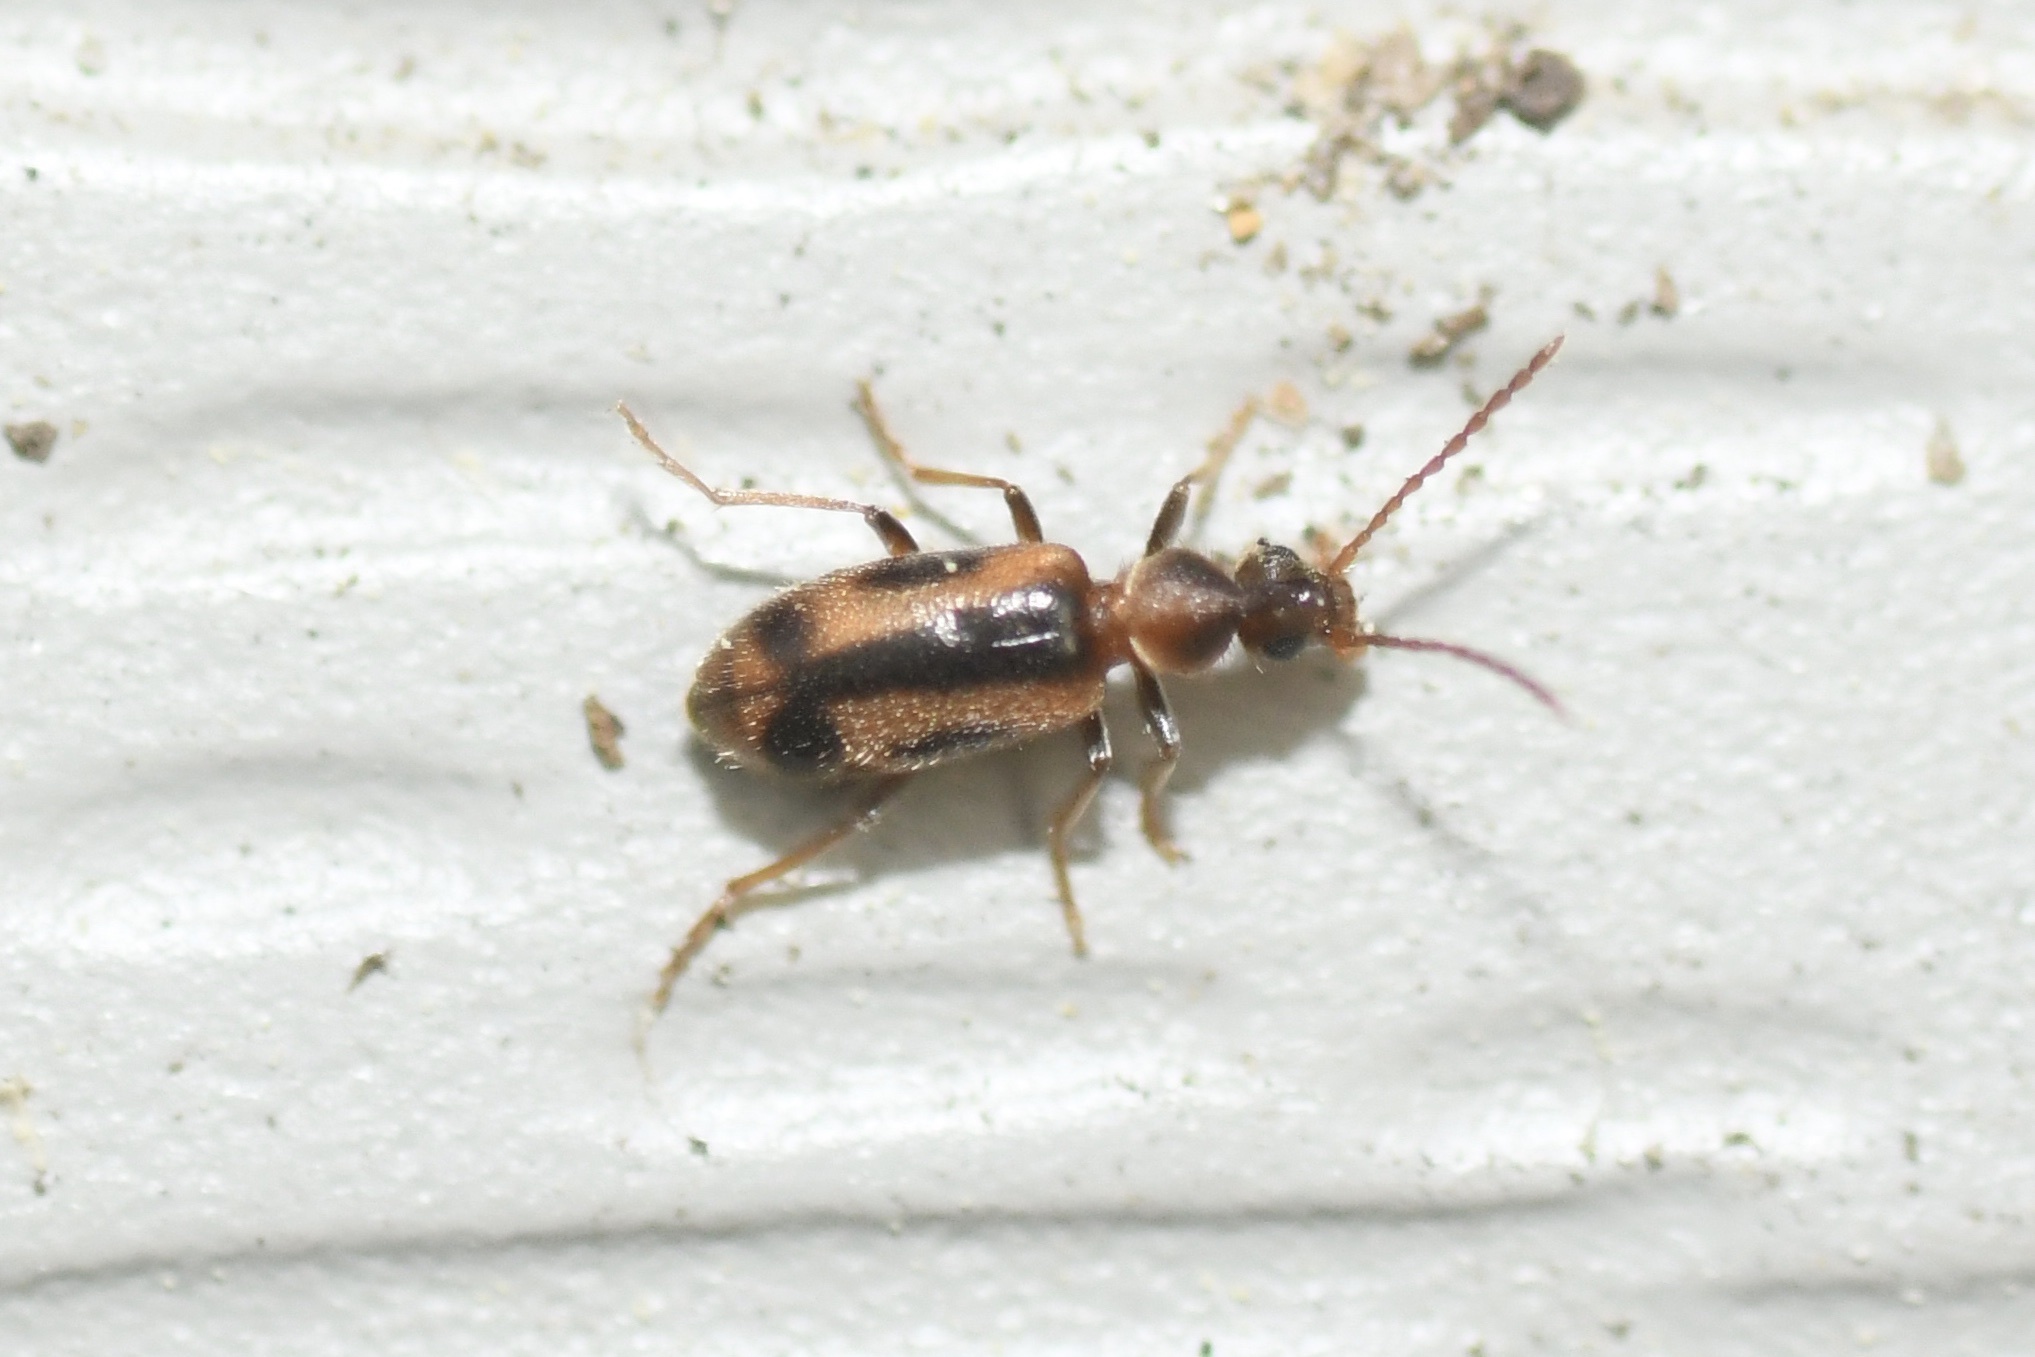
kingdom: Animalia
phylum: Arthropoda
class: Insecta
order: Coleoptera
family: Anthicidae
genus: Notoxus
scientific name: Notoxus anchora
